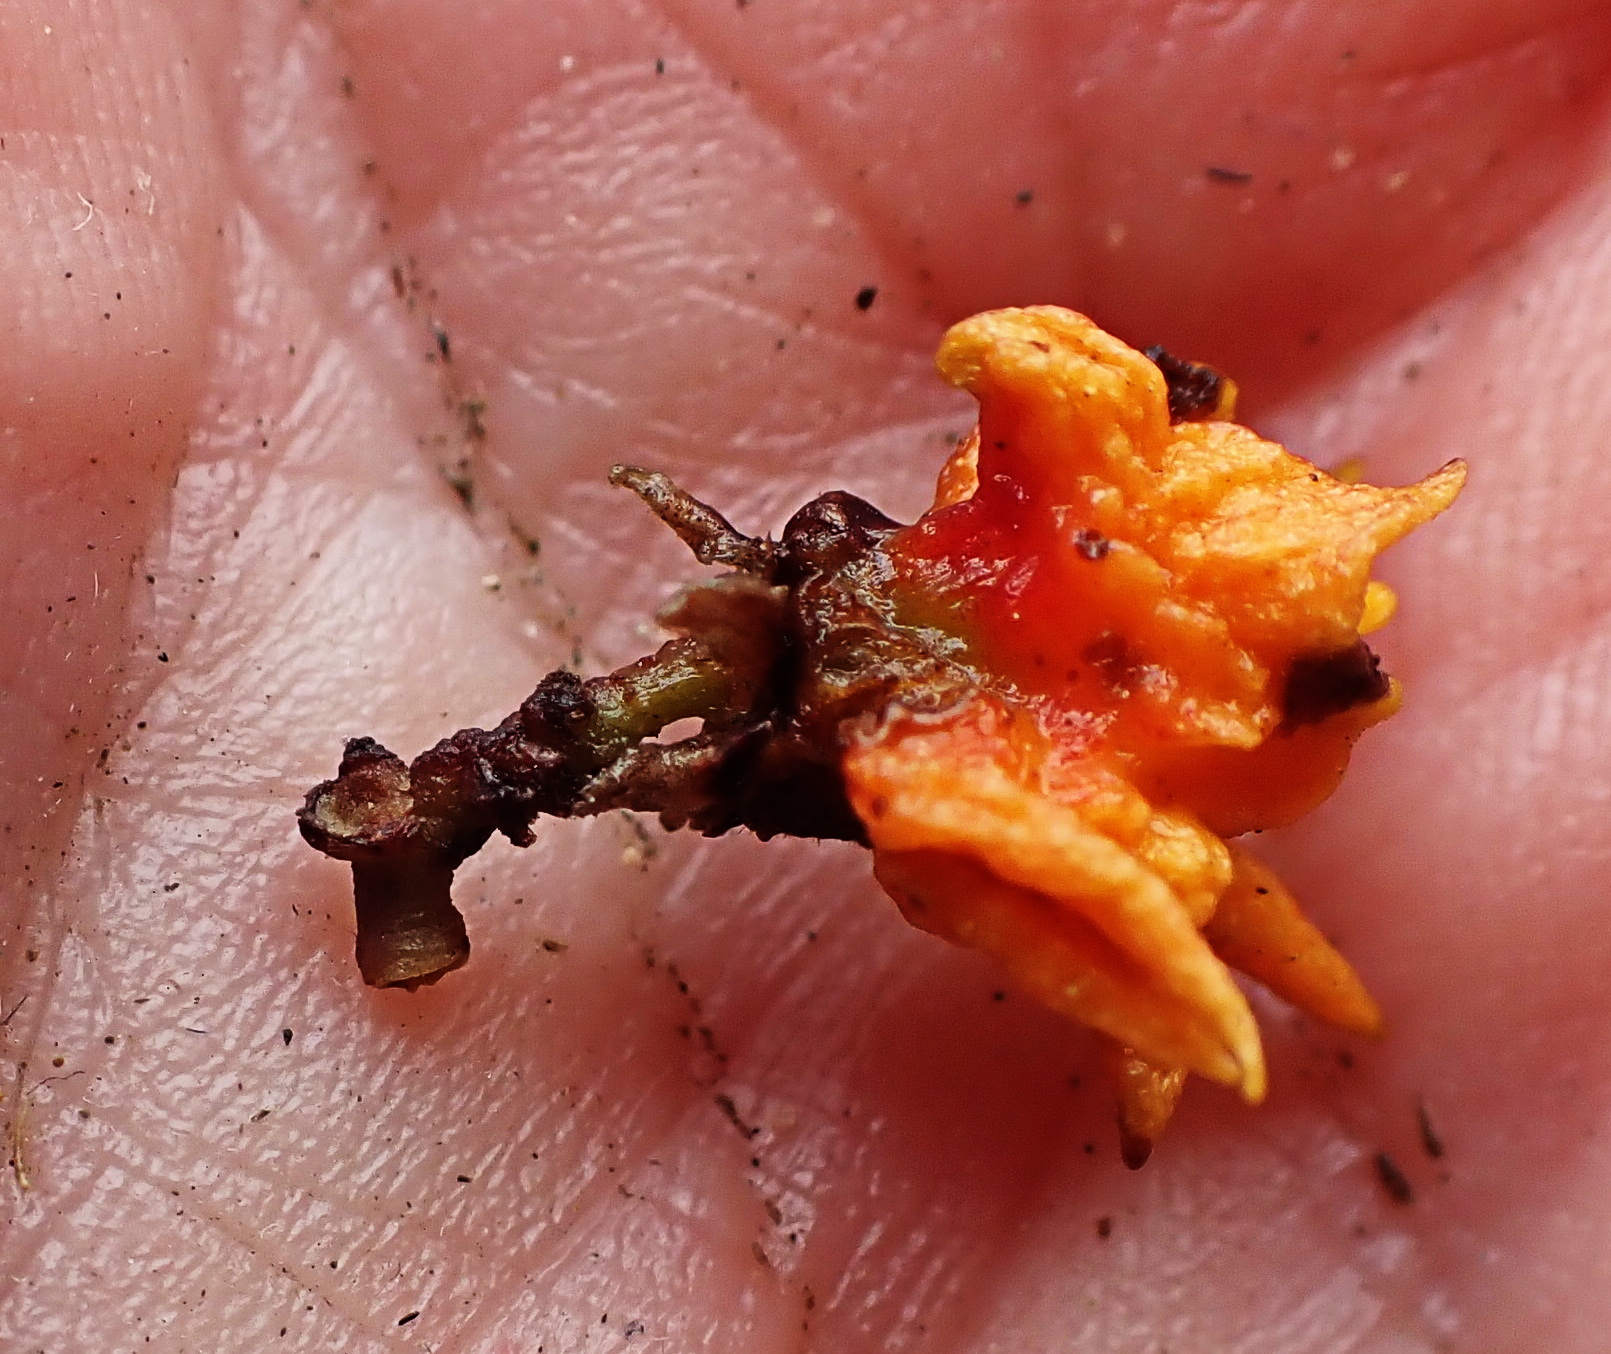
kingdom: Plantae
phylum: Tracheophyta
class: Magnoliopsida
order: Celastrales
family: Celastraceae
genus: Pterocelastrus
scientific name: Pterocelastrus tricuspidatus
